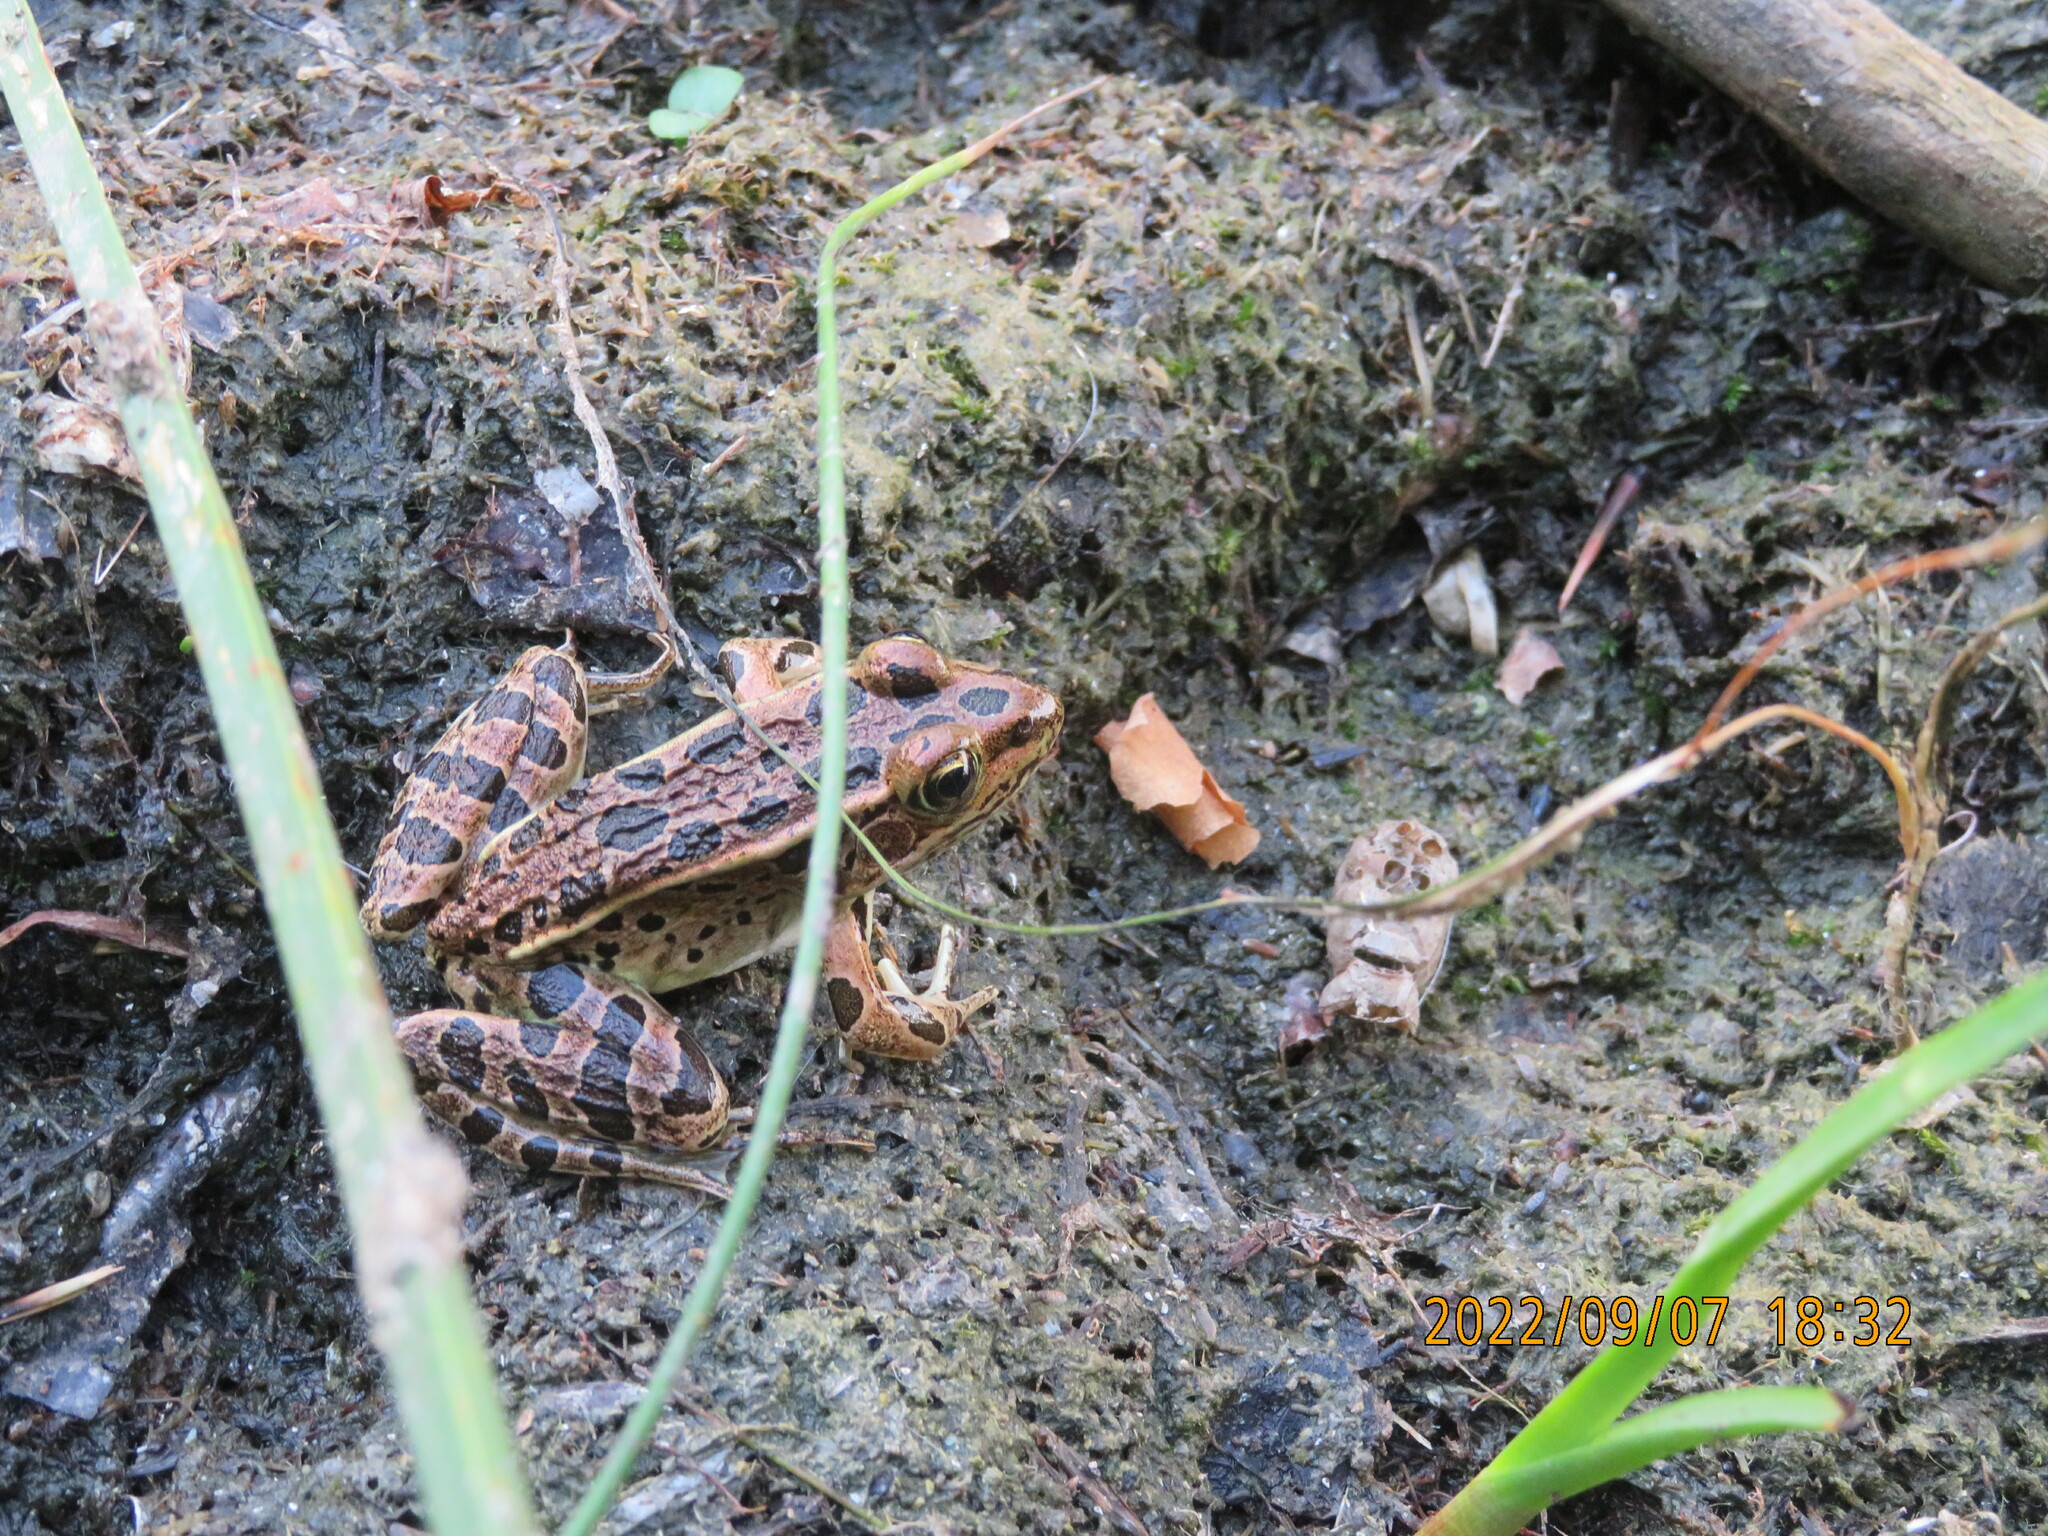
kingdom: Animalia
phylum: Chordata
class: Amphibia
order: Anura
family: Ranidae
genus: Lithobates
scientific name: Lithobates pipiens
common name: Northern leopard frog
